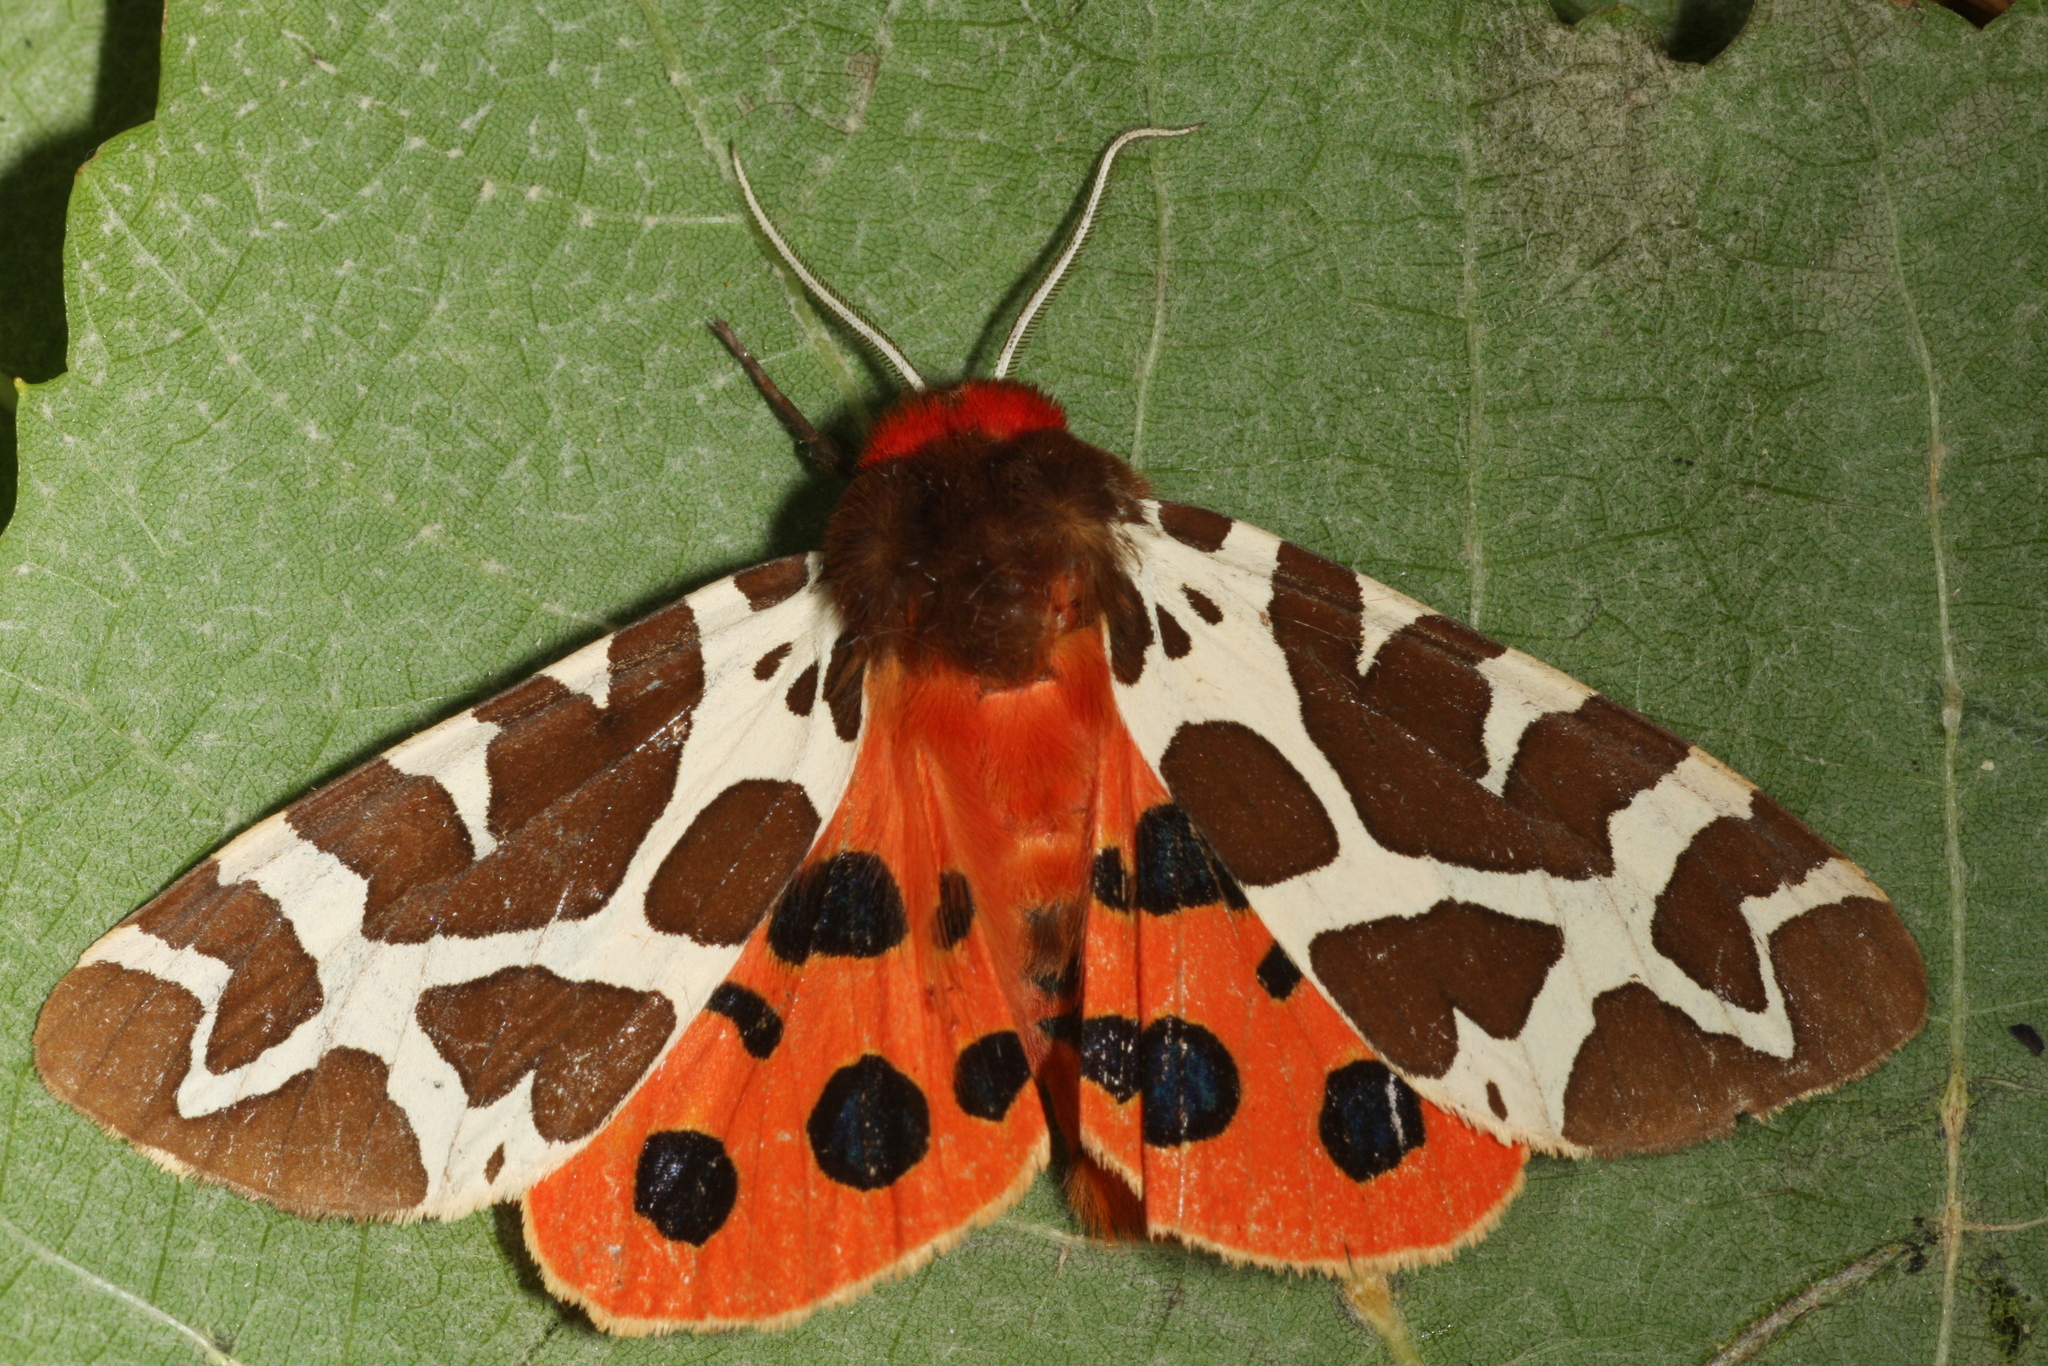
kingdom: Animalia
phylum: Arthropoda
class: Insecta
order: Lepidoptera
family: Erebidae
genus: Arctia
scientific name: Arctia caja
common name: Garden tiger
